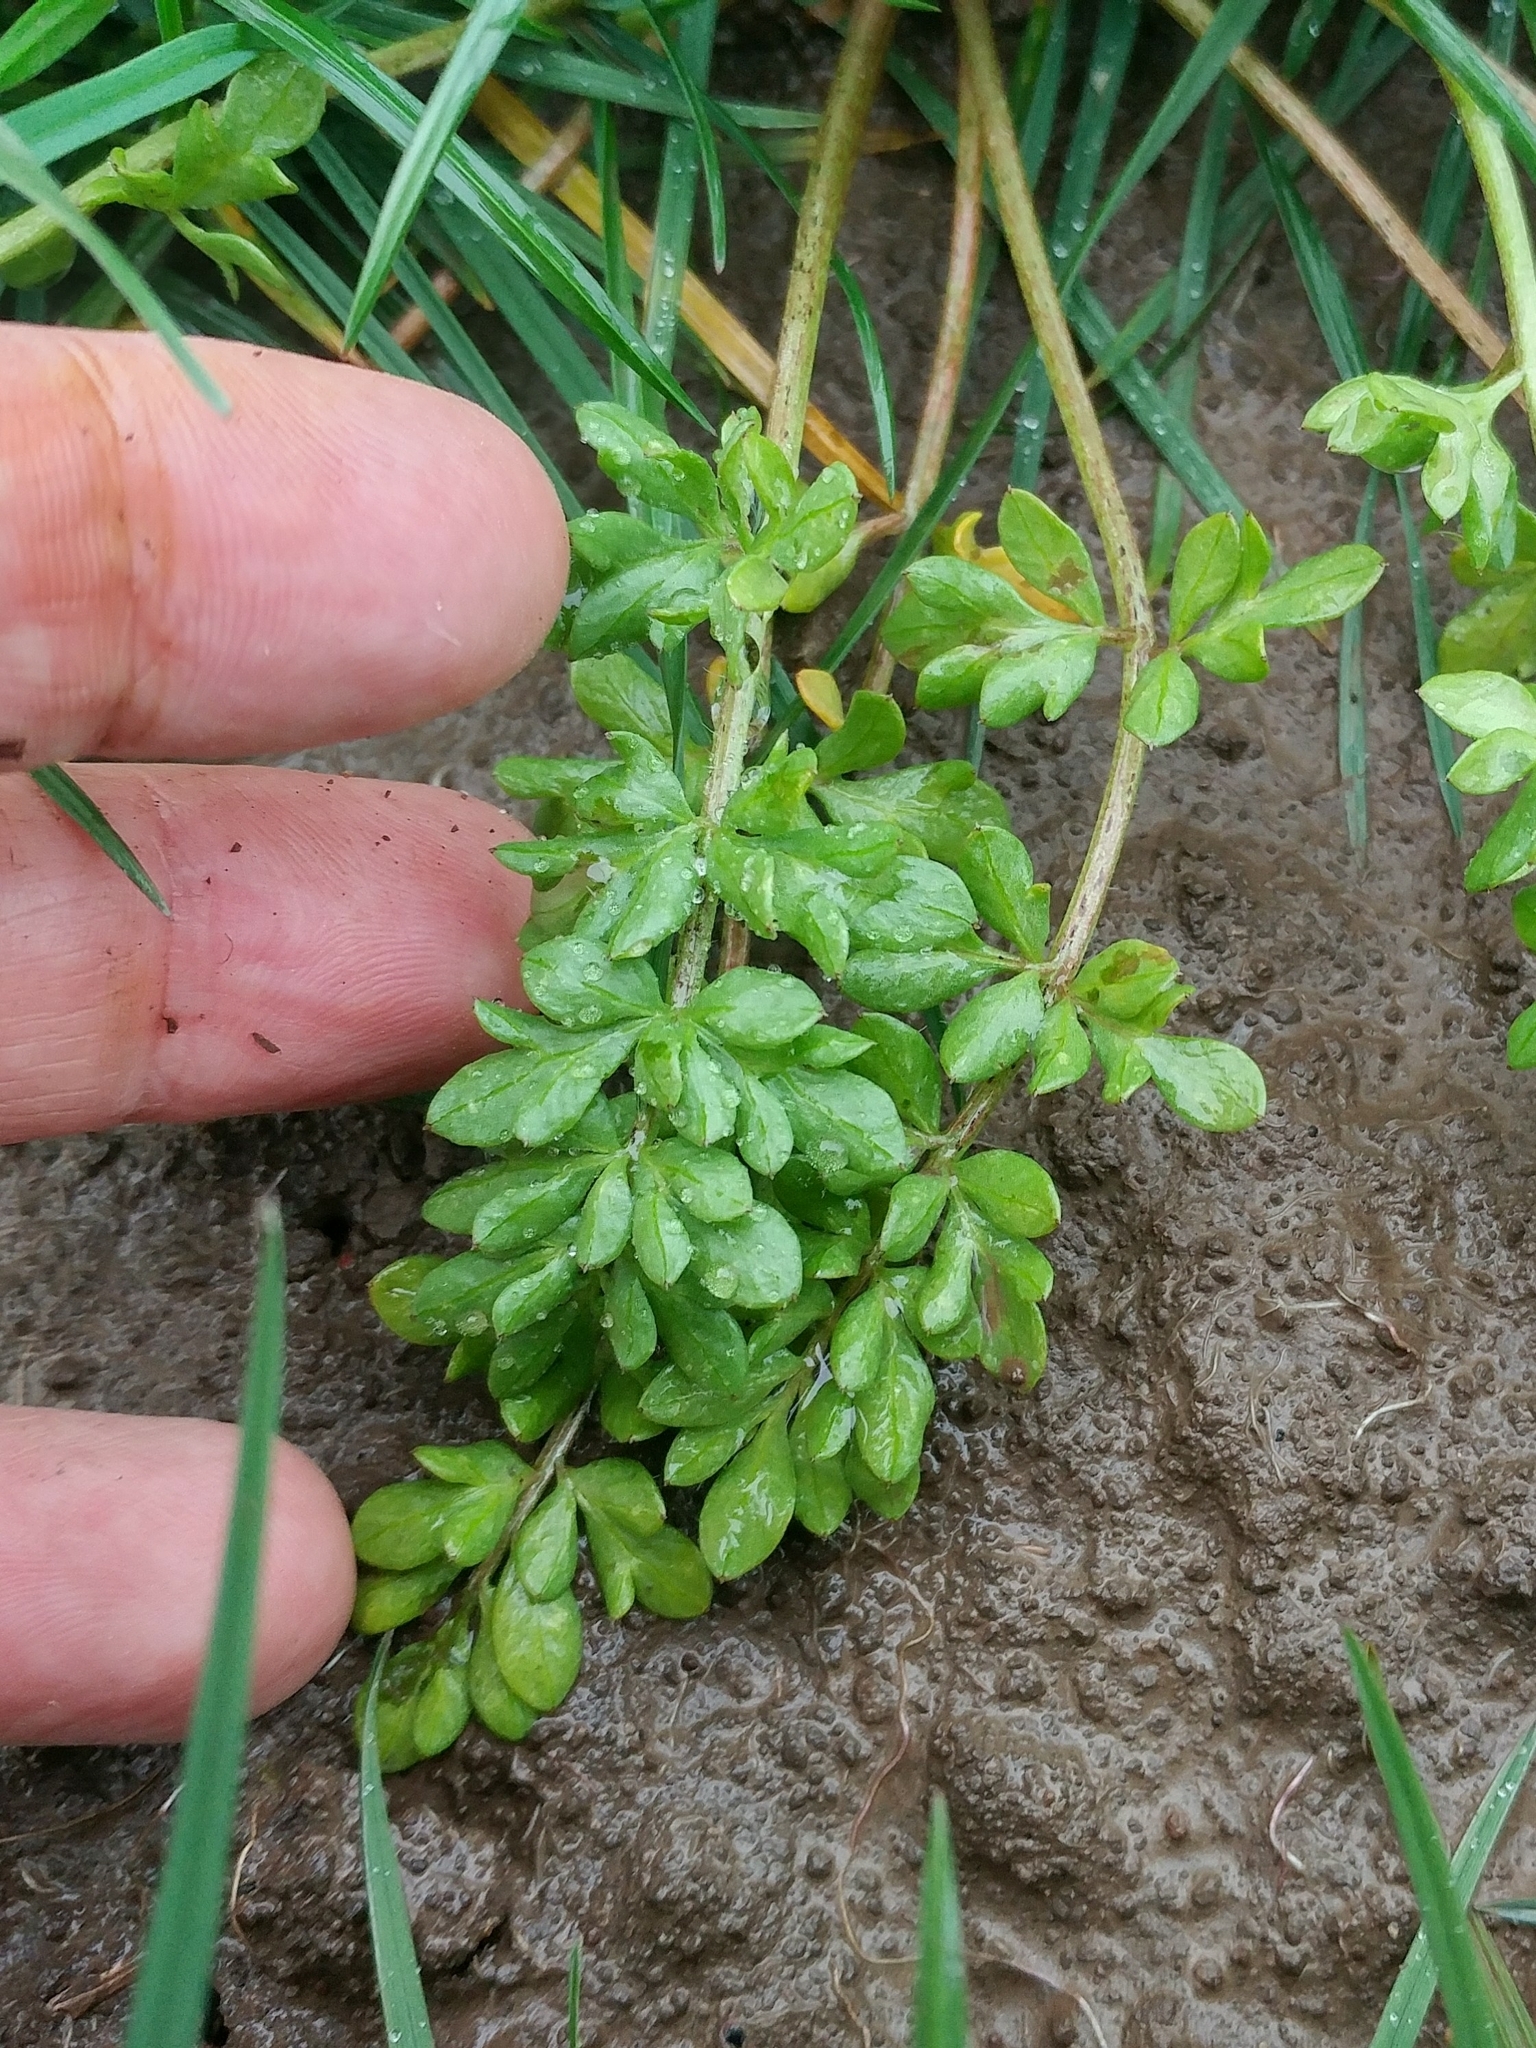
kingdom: Plantae
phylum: Tracheophyta
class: Magnoliopsida
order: Brassicales
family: Limnanthaceae
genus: Limnanthes
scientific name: Limnanthes alba
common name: Meadowfoam
